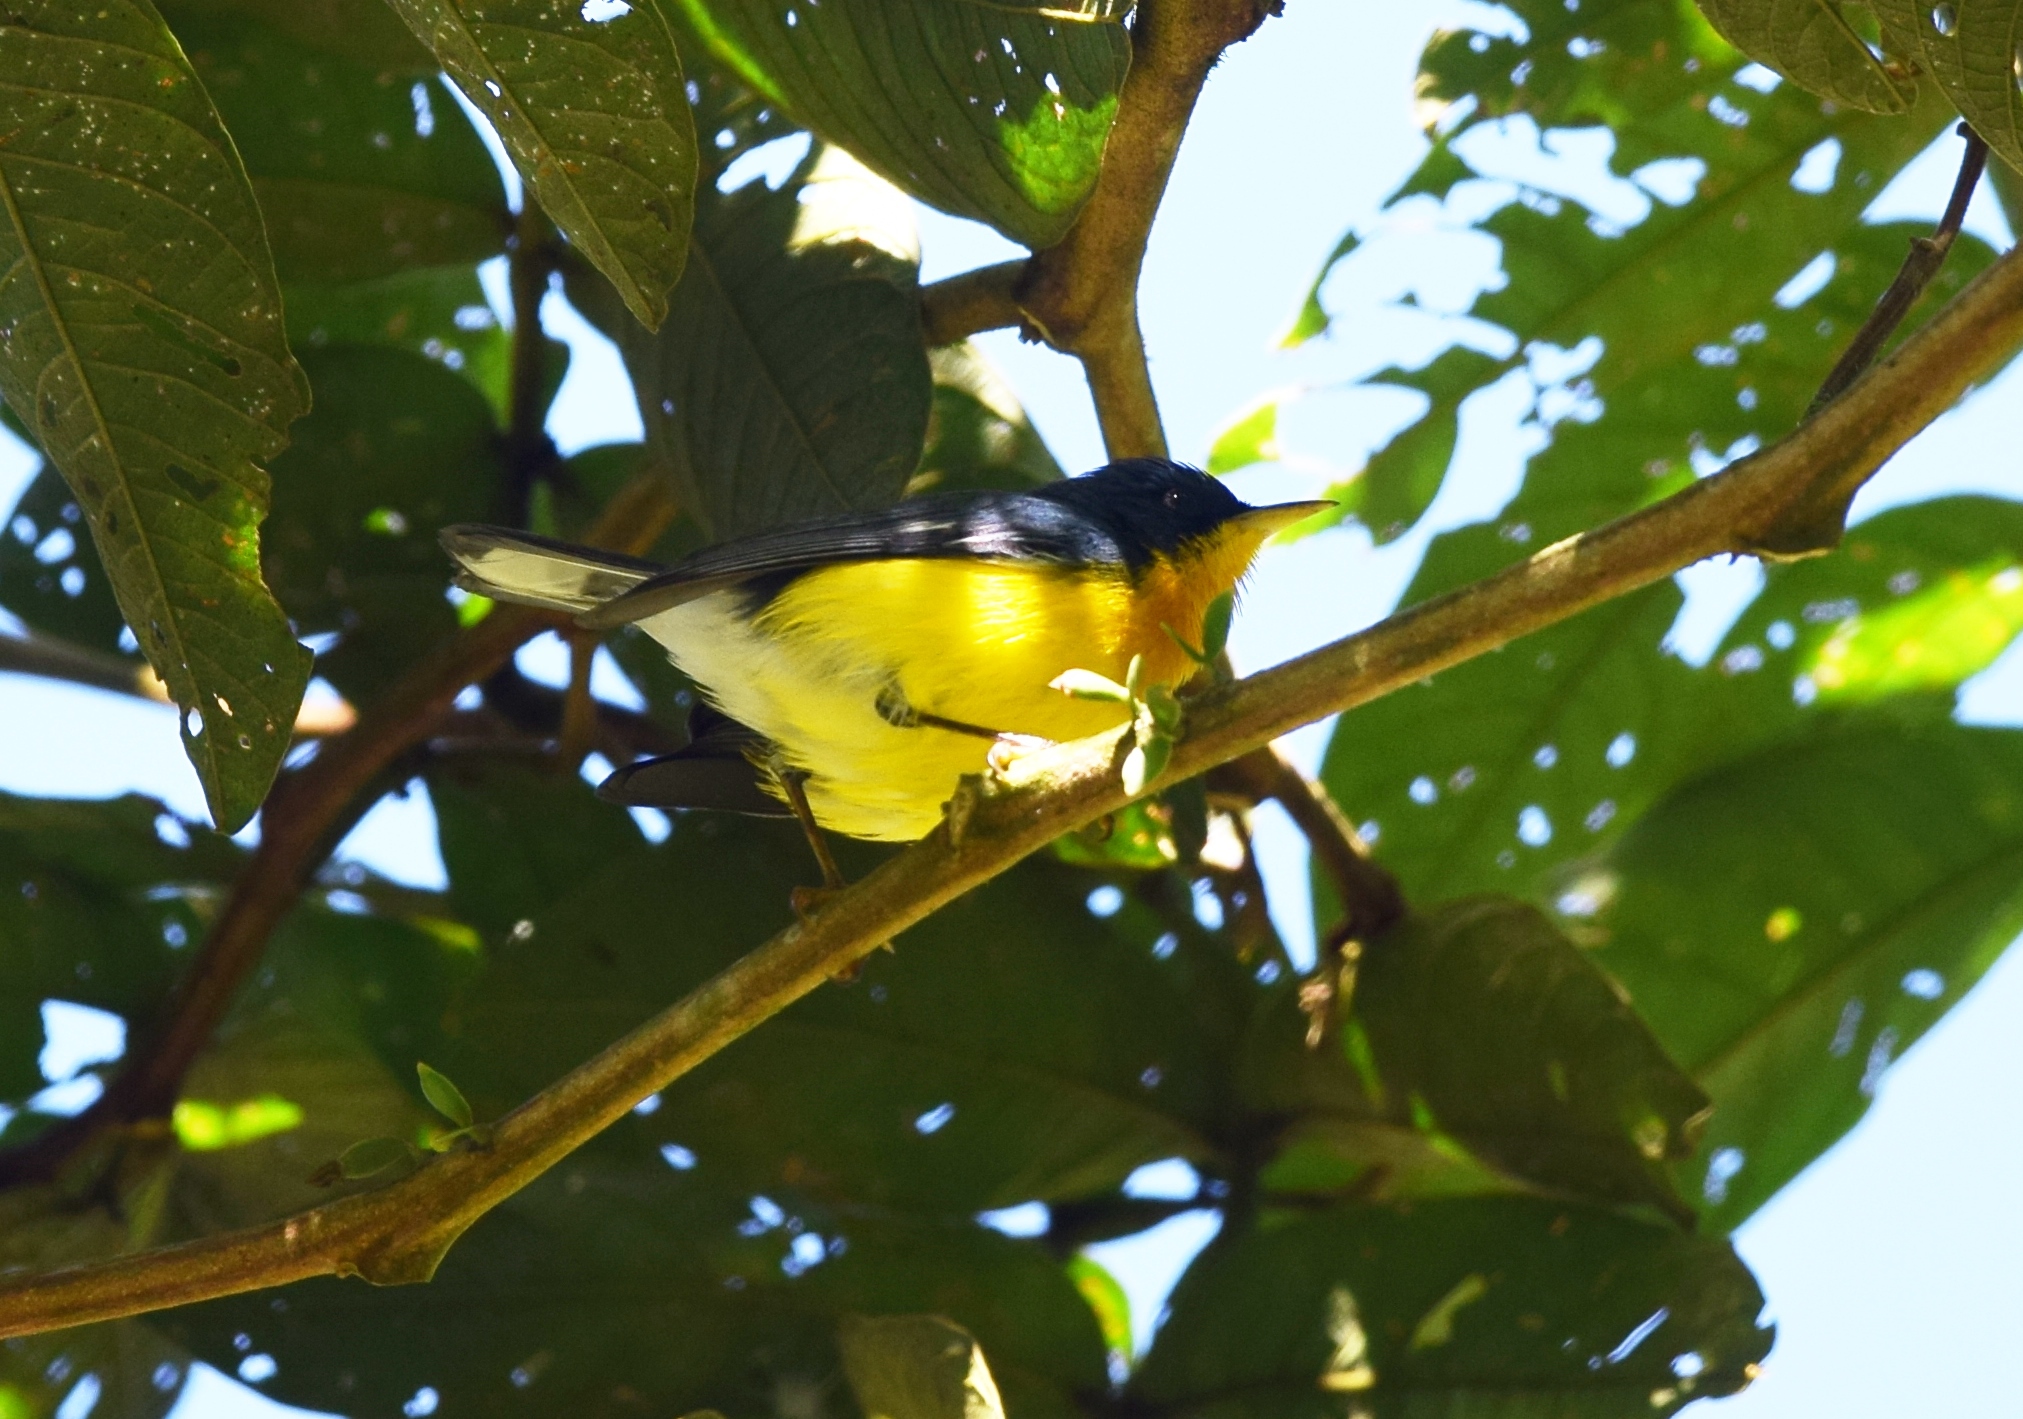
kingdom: Animalia
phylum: Chordata
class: Aves
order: Passeriformes
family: Parulidae
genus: Setophaga
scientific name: Setophaga pitiayumi
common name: Tropical parula
